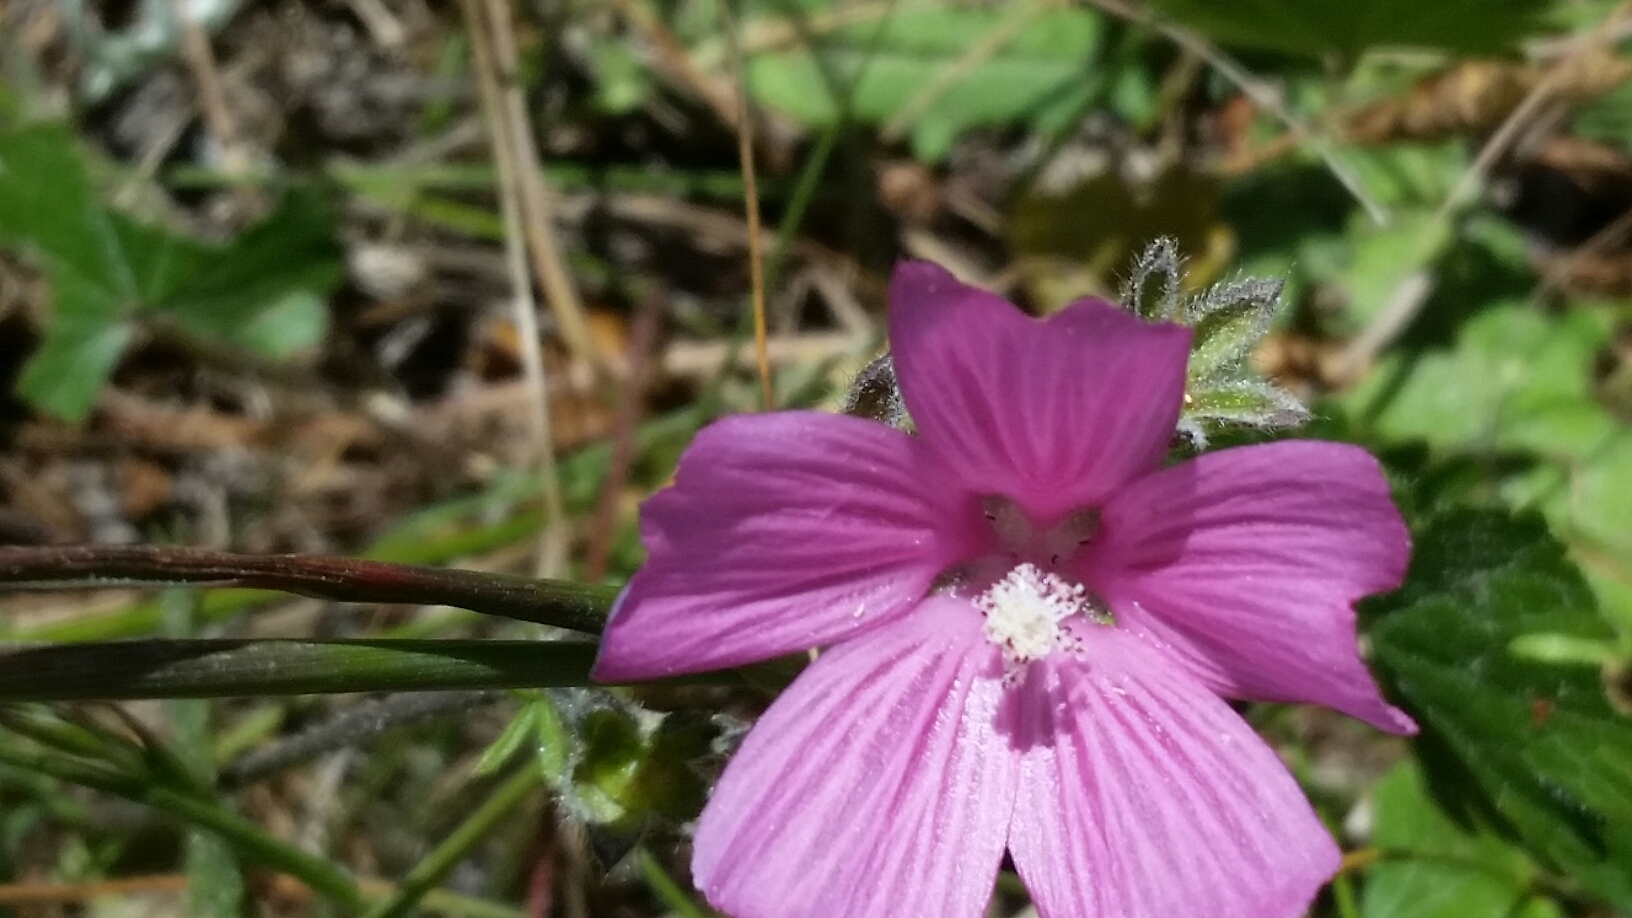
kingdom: Plantae
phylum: Tracheophyta
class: Magnoliopsida
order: Malvales
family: Malvaceae
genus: Sidalcea
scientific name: Sidalcea malviflora
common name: Greek mallow
